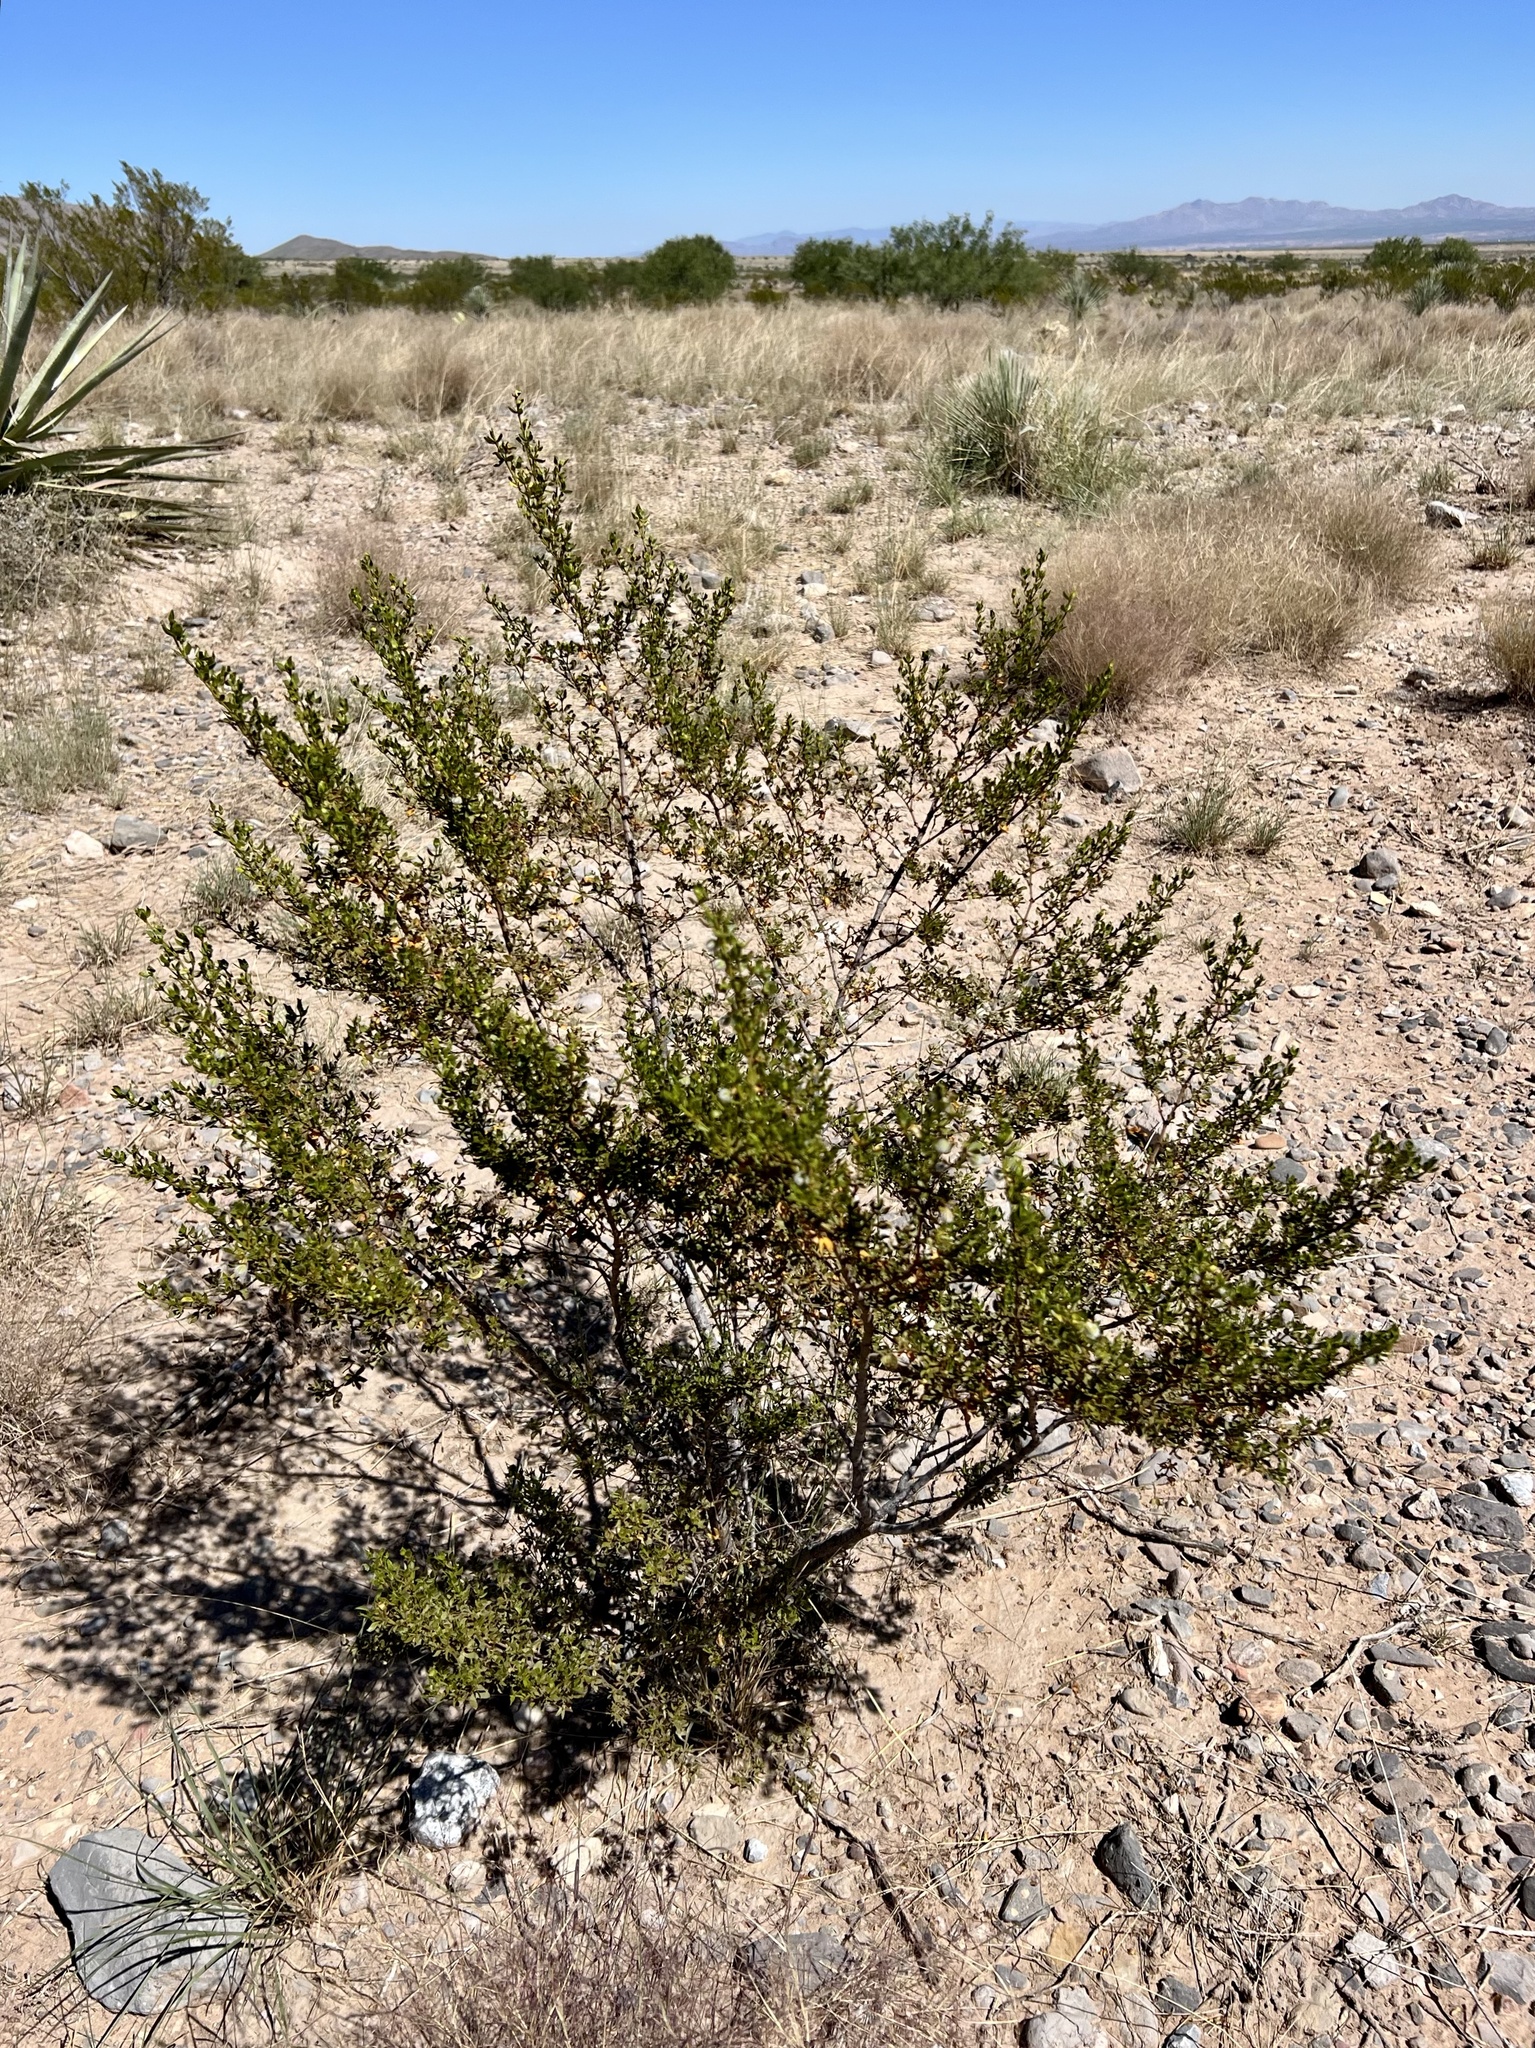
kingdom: Plantae
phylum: Tracheophyta
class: Magnoliopsida
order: Zygophyllales
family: Zygophyllaceae
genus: Larrea
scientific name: Larrea tridentata
